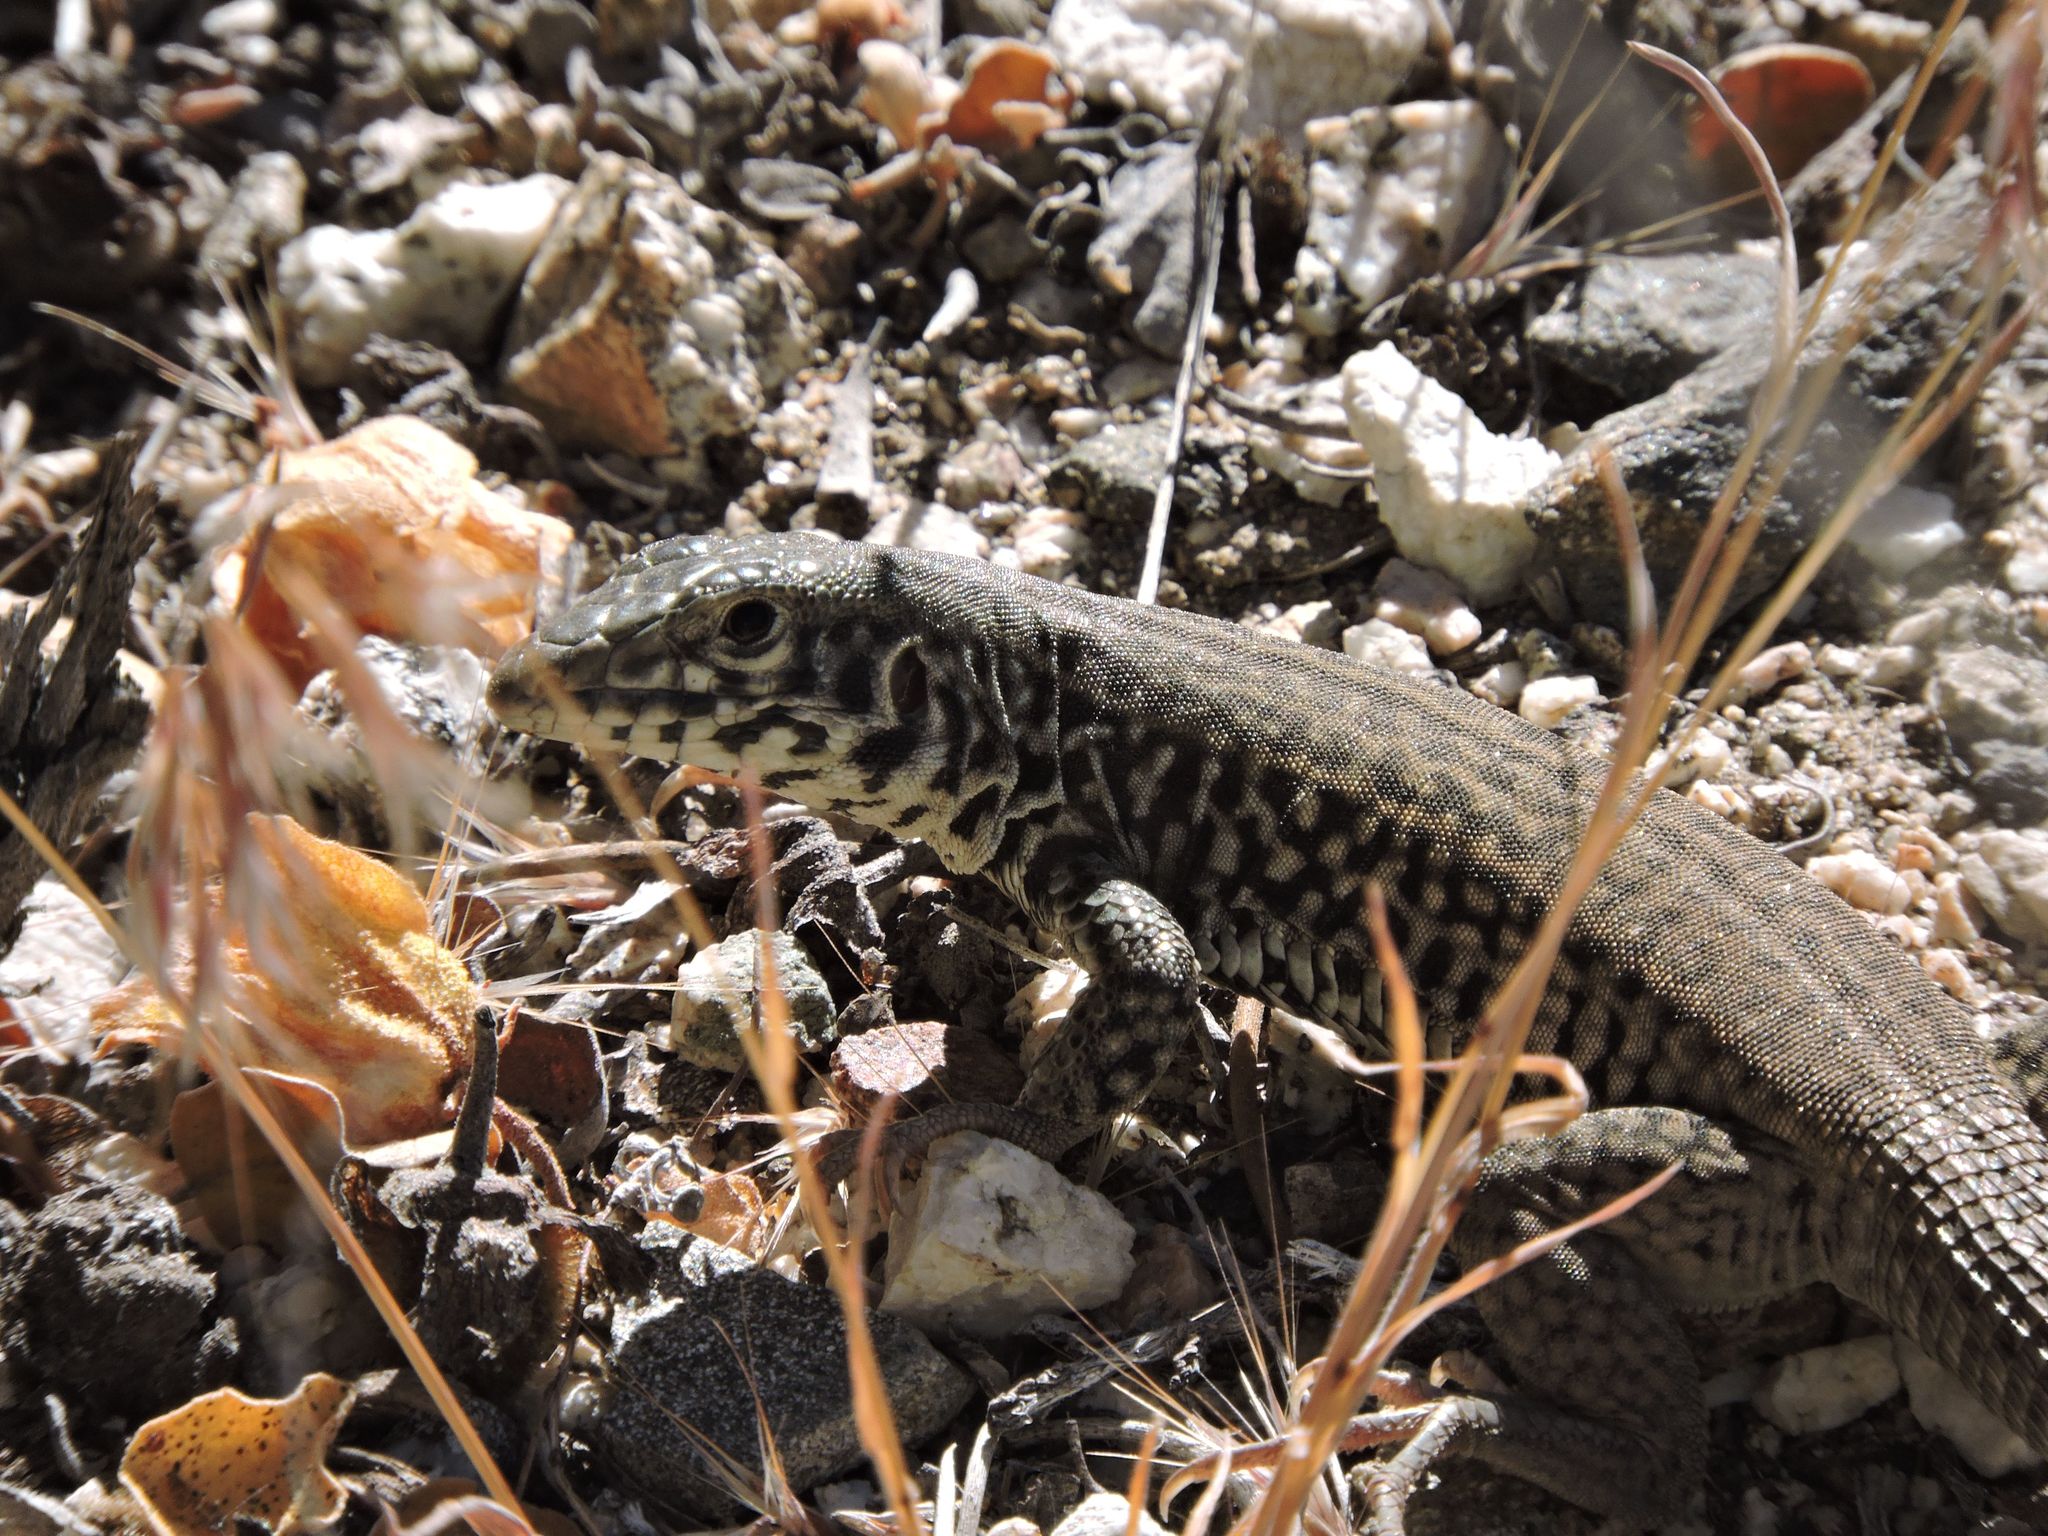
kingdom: Animalia
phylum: Chordata
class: Squamata
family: Teiidae
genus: Aspidoscelis
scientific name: Aspidoscelis tigris
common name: Tiger whiptail
